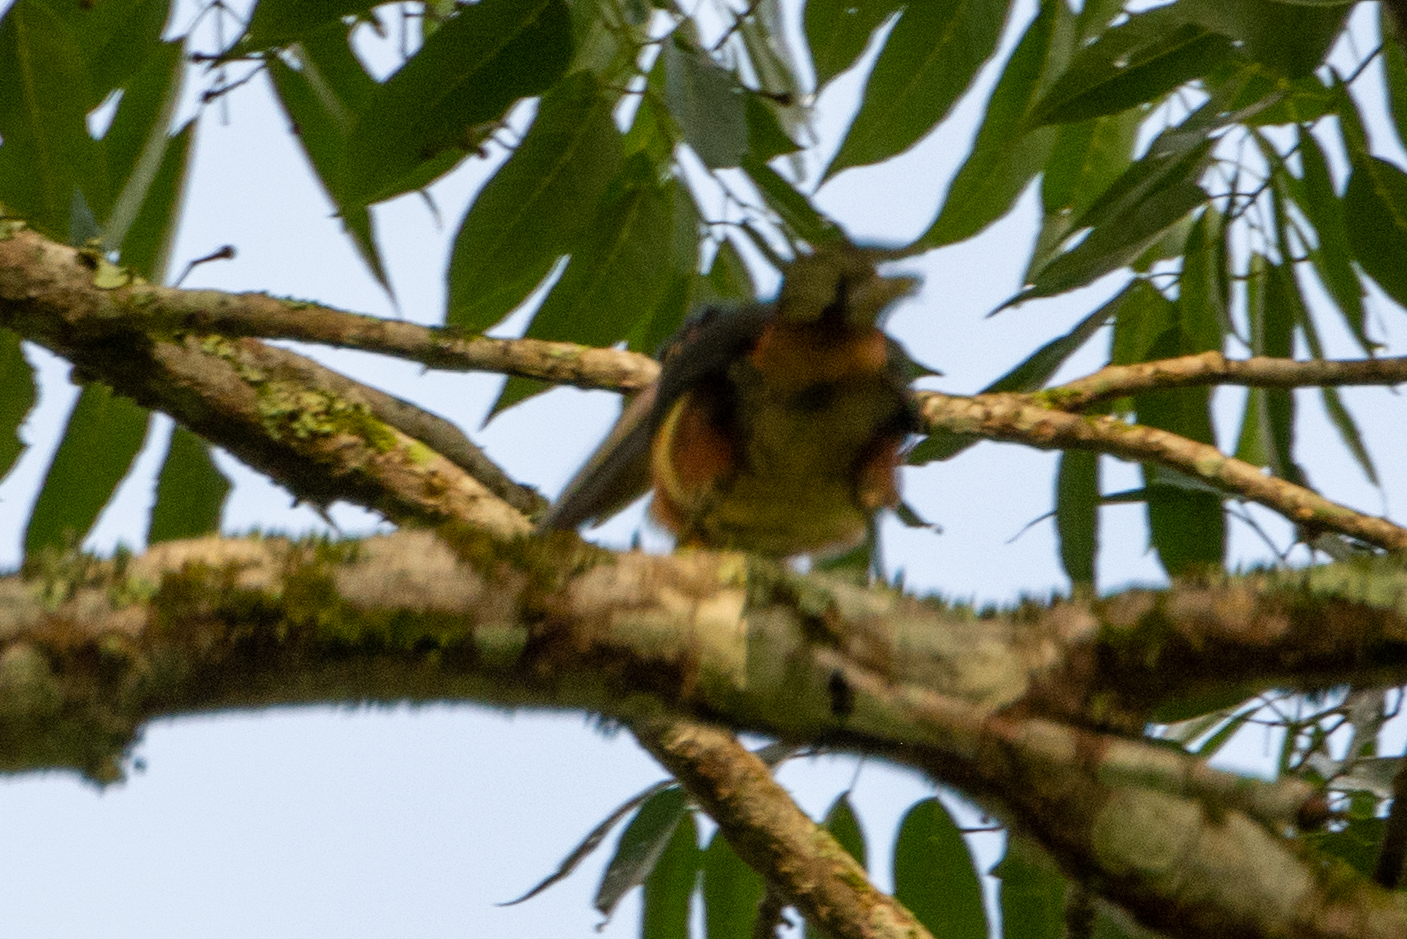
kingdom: Animalia
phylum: Chordata
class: Aves
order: Piciformes
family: Ramphastidae
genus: Pteroglossus
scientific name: Pteroglossus torquatus
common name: Collared aracari
